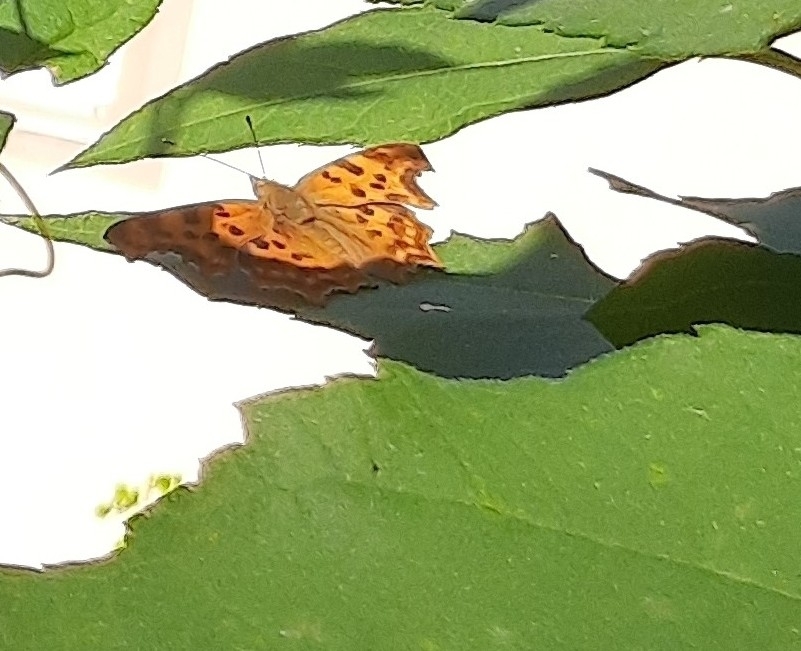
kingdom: Animalia
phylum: Arthropoda
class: Insecta
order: Lepidoptera
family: Nymphalidae
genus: Polygonia
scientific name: Polygonia c-album
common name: Comma
